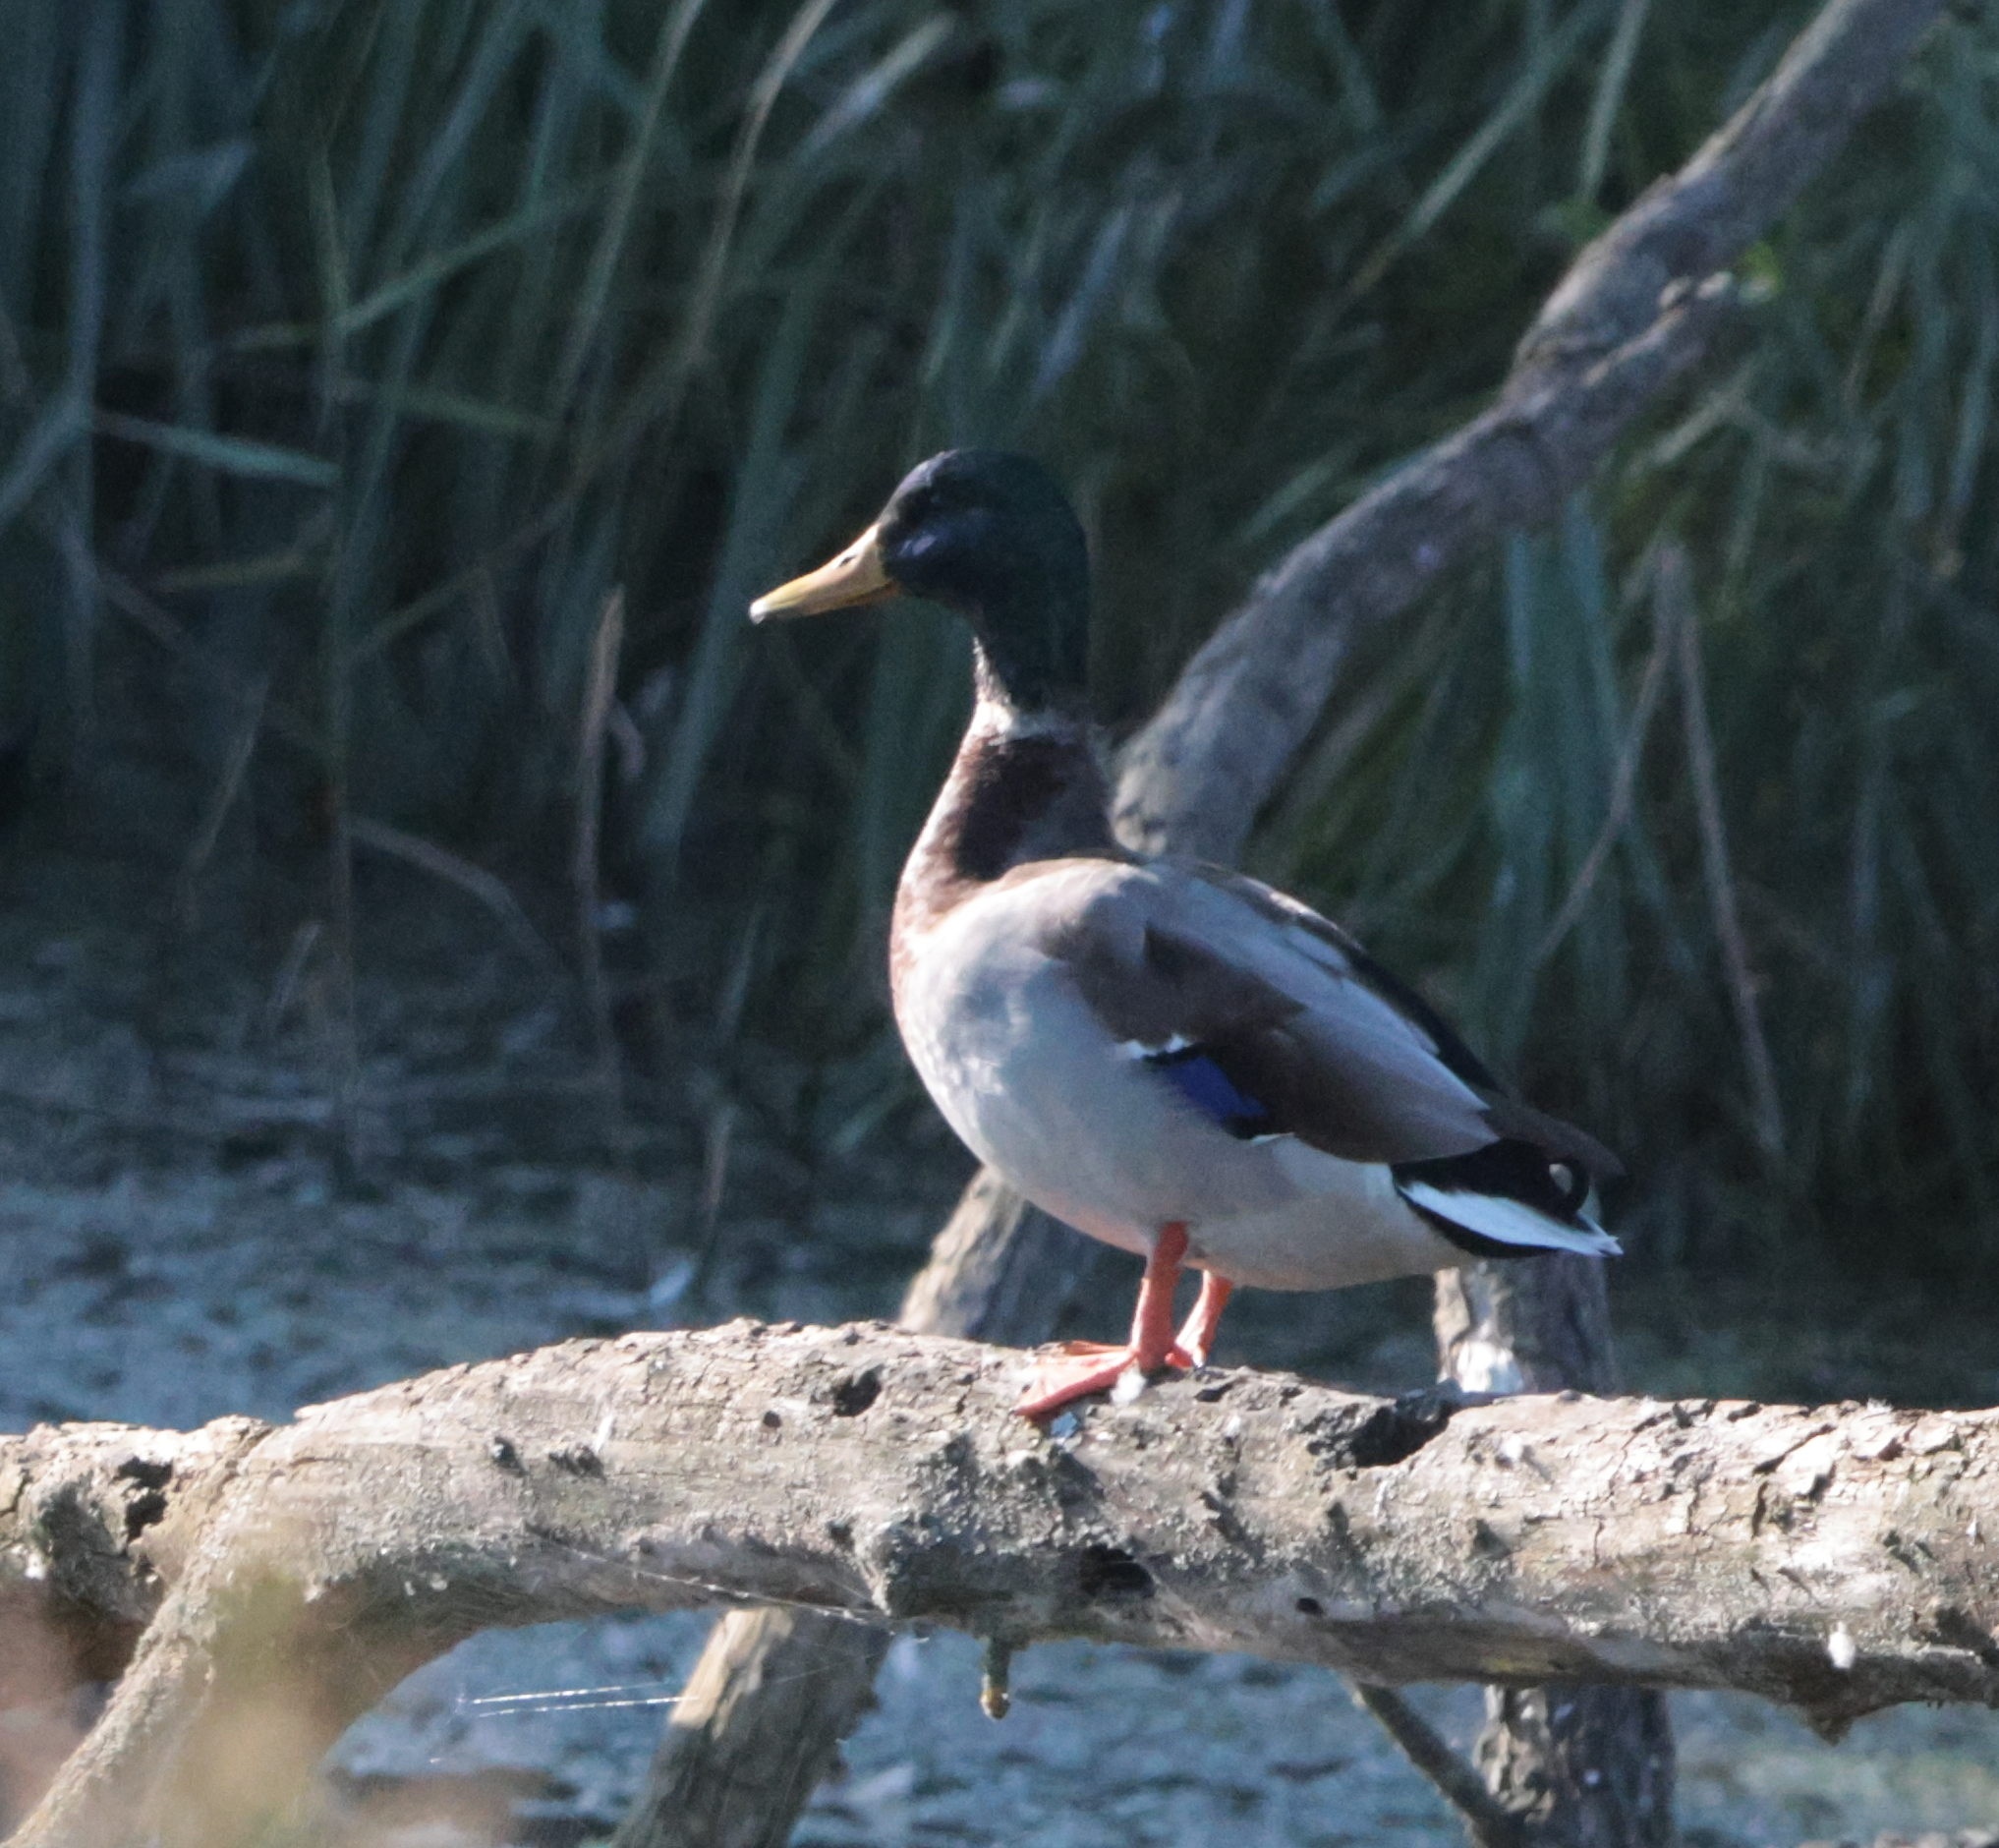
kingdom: Animalia
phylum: Chordata
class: Aves
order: Anseriformes
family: Anatidae
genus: Anas
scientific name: Anas platyrhynchos
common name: Mallard
